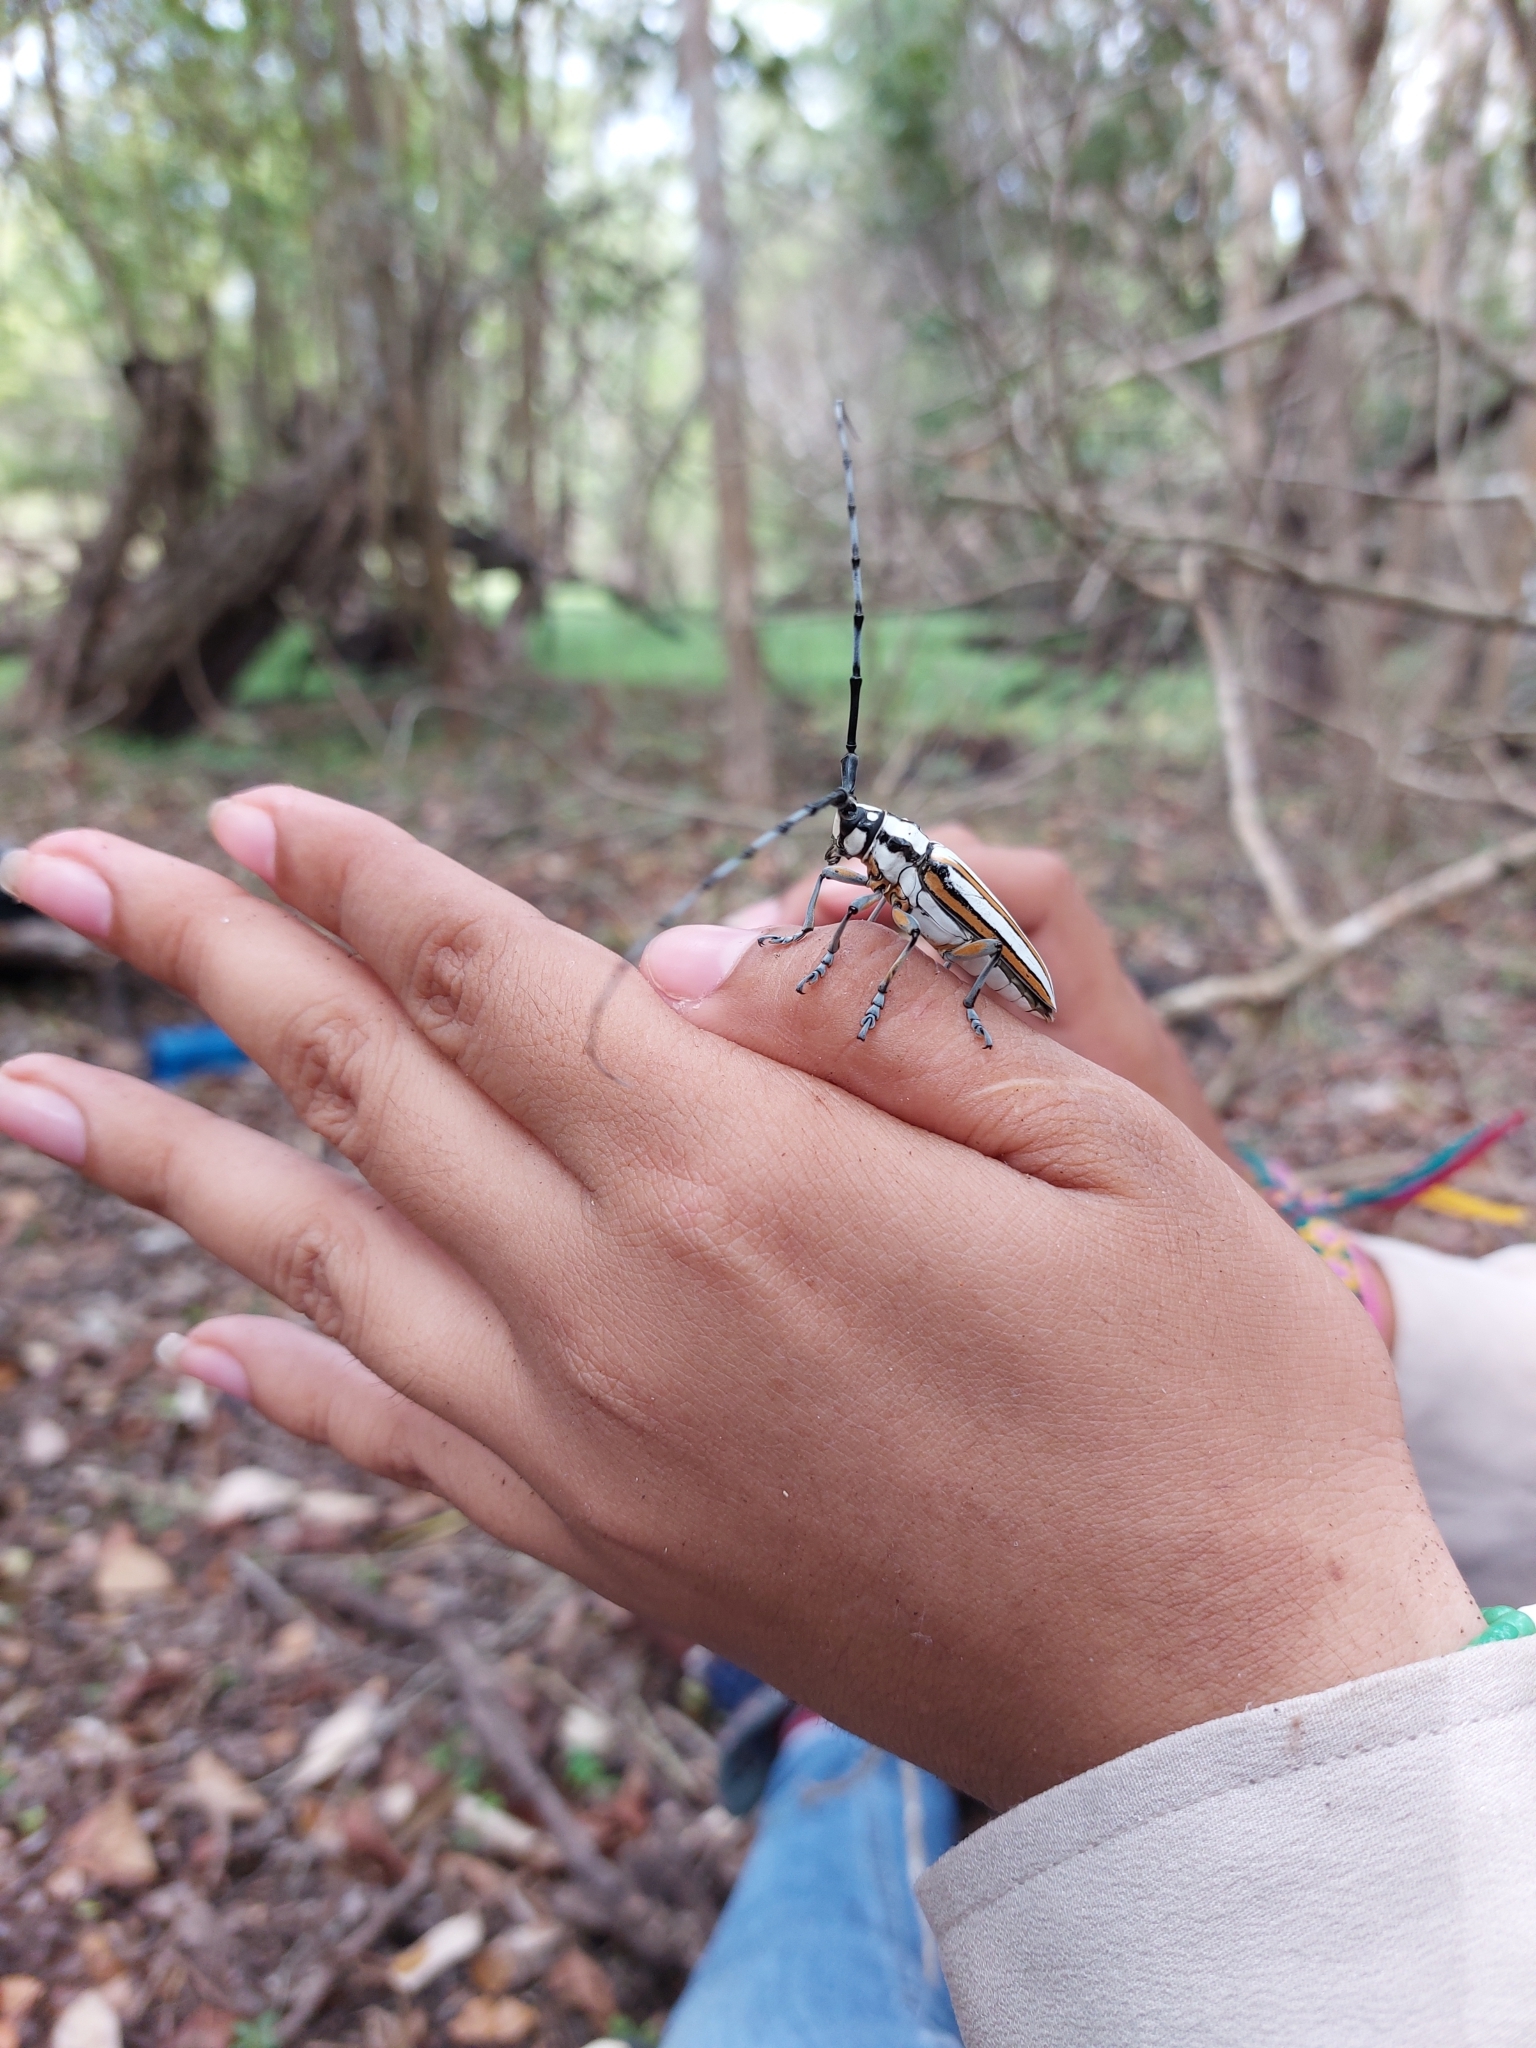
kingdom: Animalia
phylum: Arthropoda
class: Insecta
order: Coleoptera
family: Cerambycidae
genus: Deliathis
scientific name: Deliathis incana
